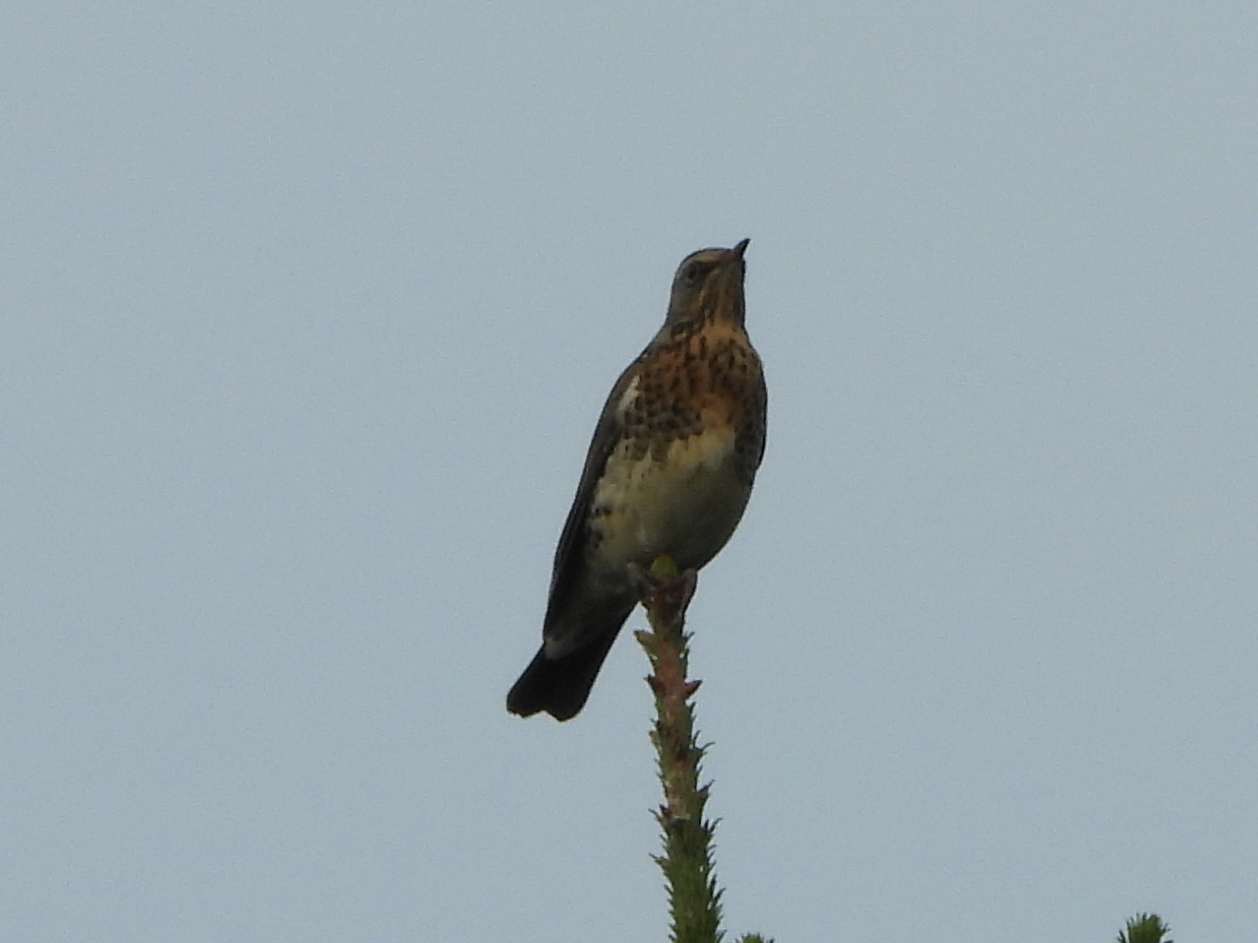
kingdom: Animalia
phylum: Chordata
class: Aves
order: Passeriformes
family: Turdidae
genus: Turdus
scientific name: Turdus pilaris
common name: Fieldfare
